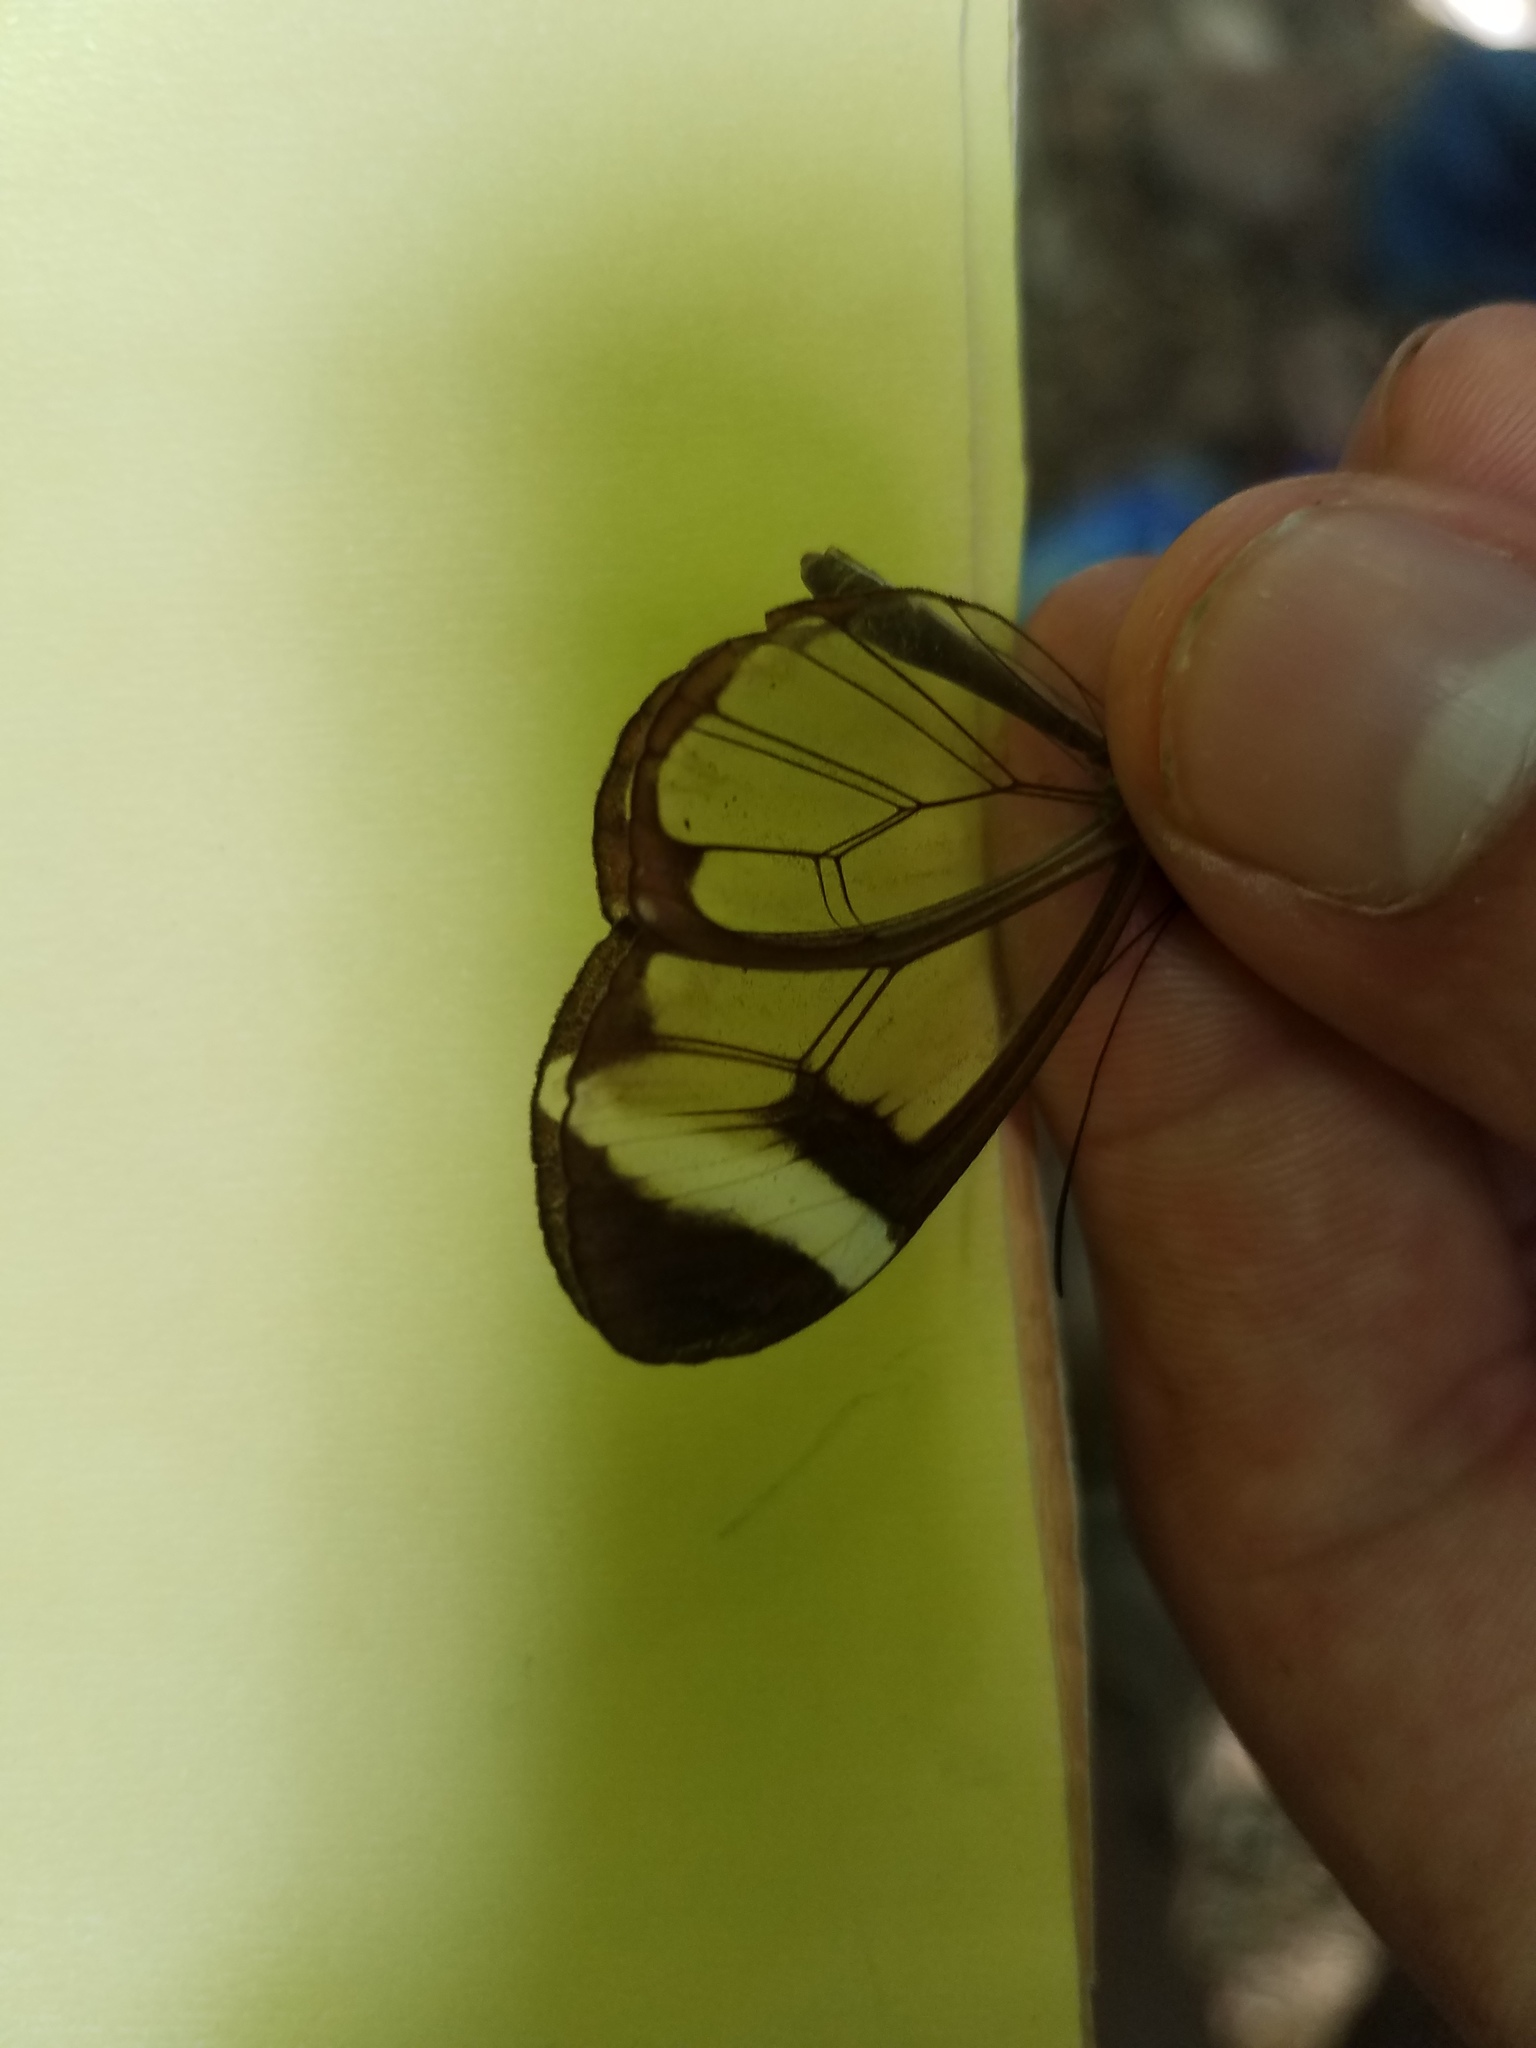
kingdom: Animalia
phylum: Arthropoda
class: Insecta
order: Lepidoptera
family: Nymphalidae
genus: Greta
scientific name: Greta morgane
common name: Thick-tipped greta
